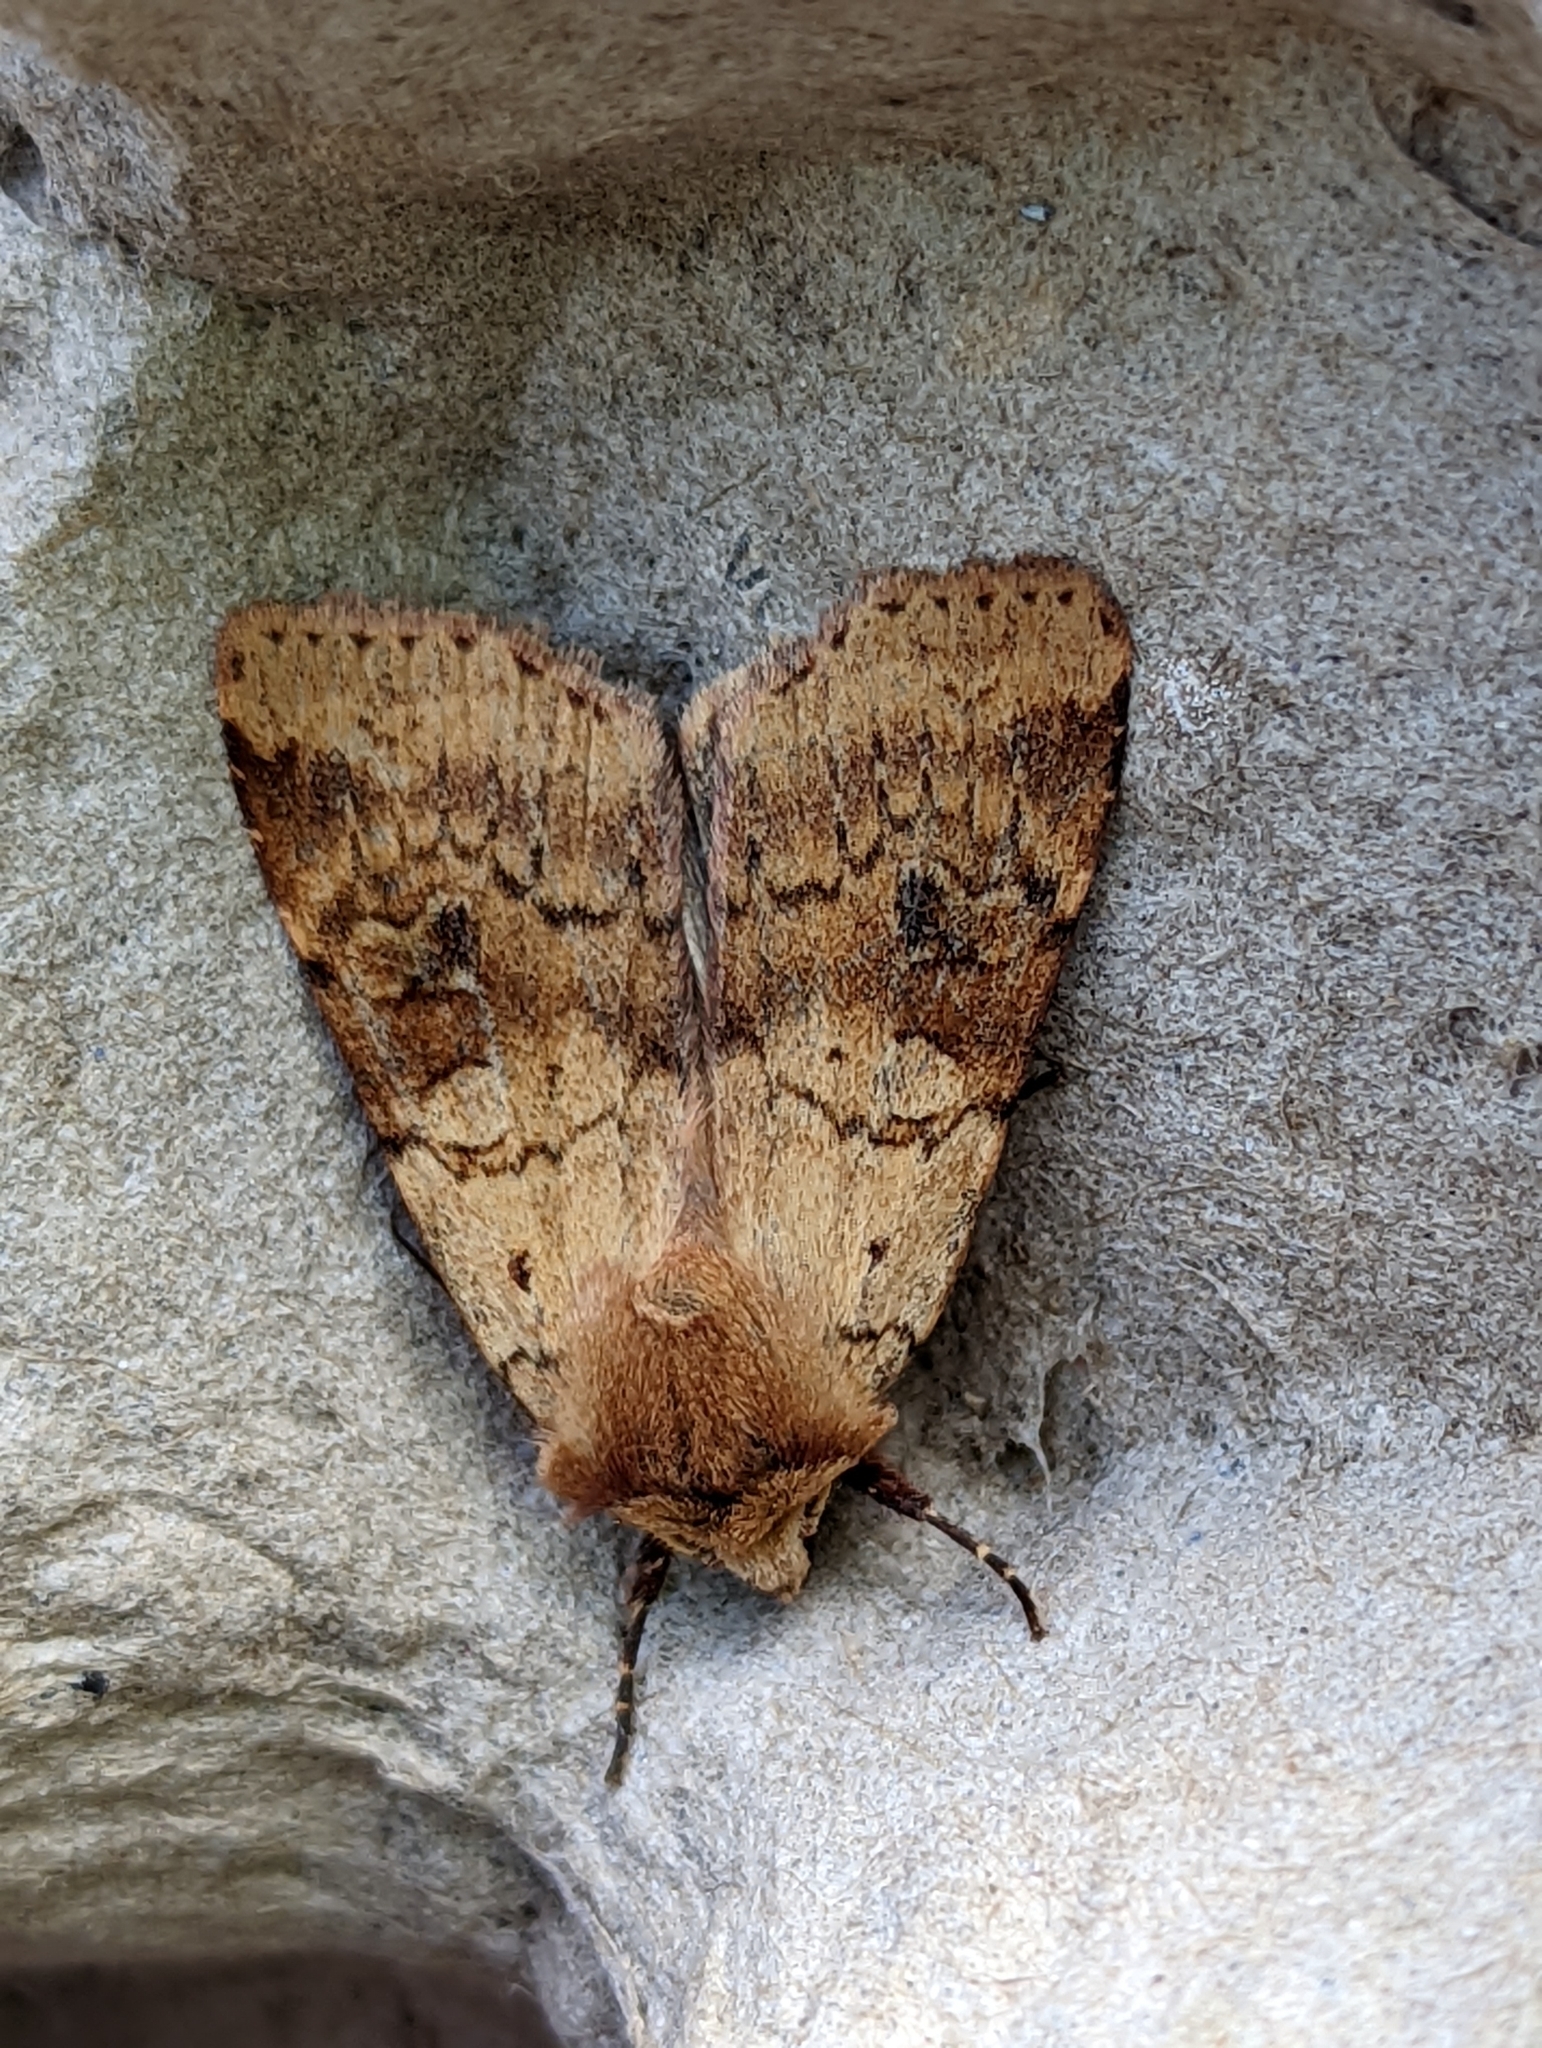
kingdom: Animalia
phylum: Arthropoda
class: Insecta
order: Lepidoptera
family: Noctuidae
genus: Diarsia
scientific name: Diarsia mendica
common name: Ingrailed clay
